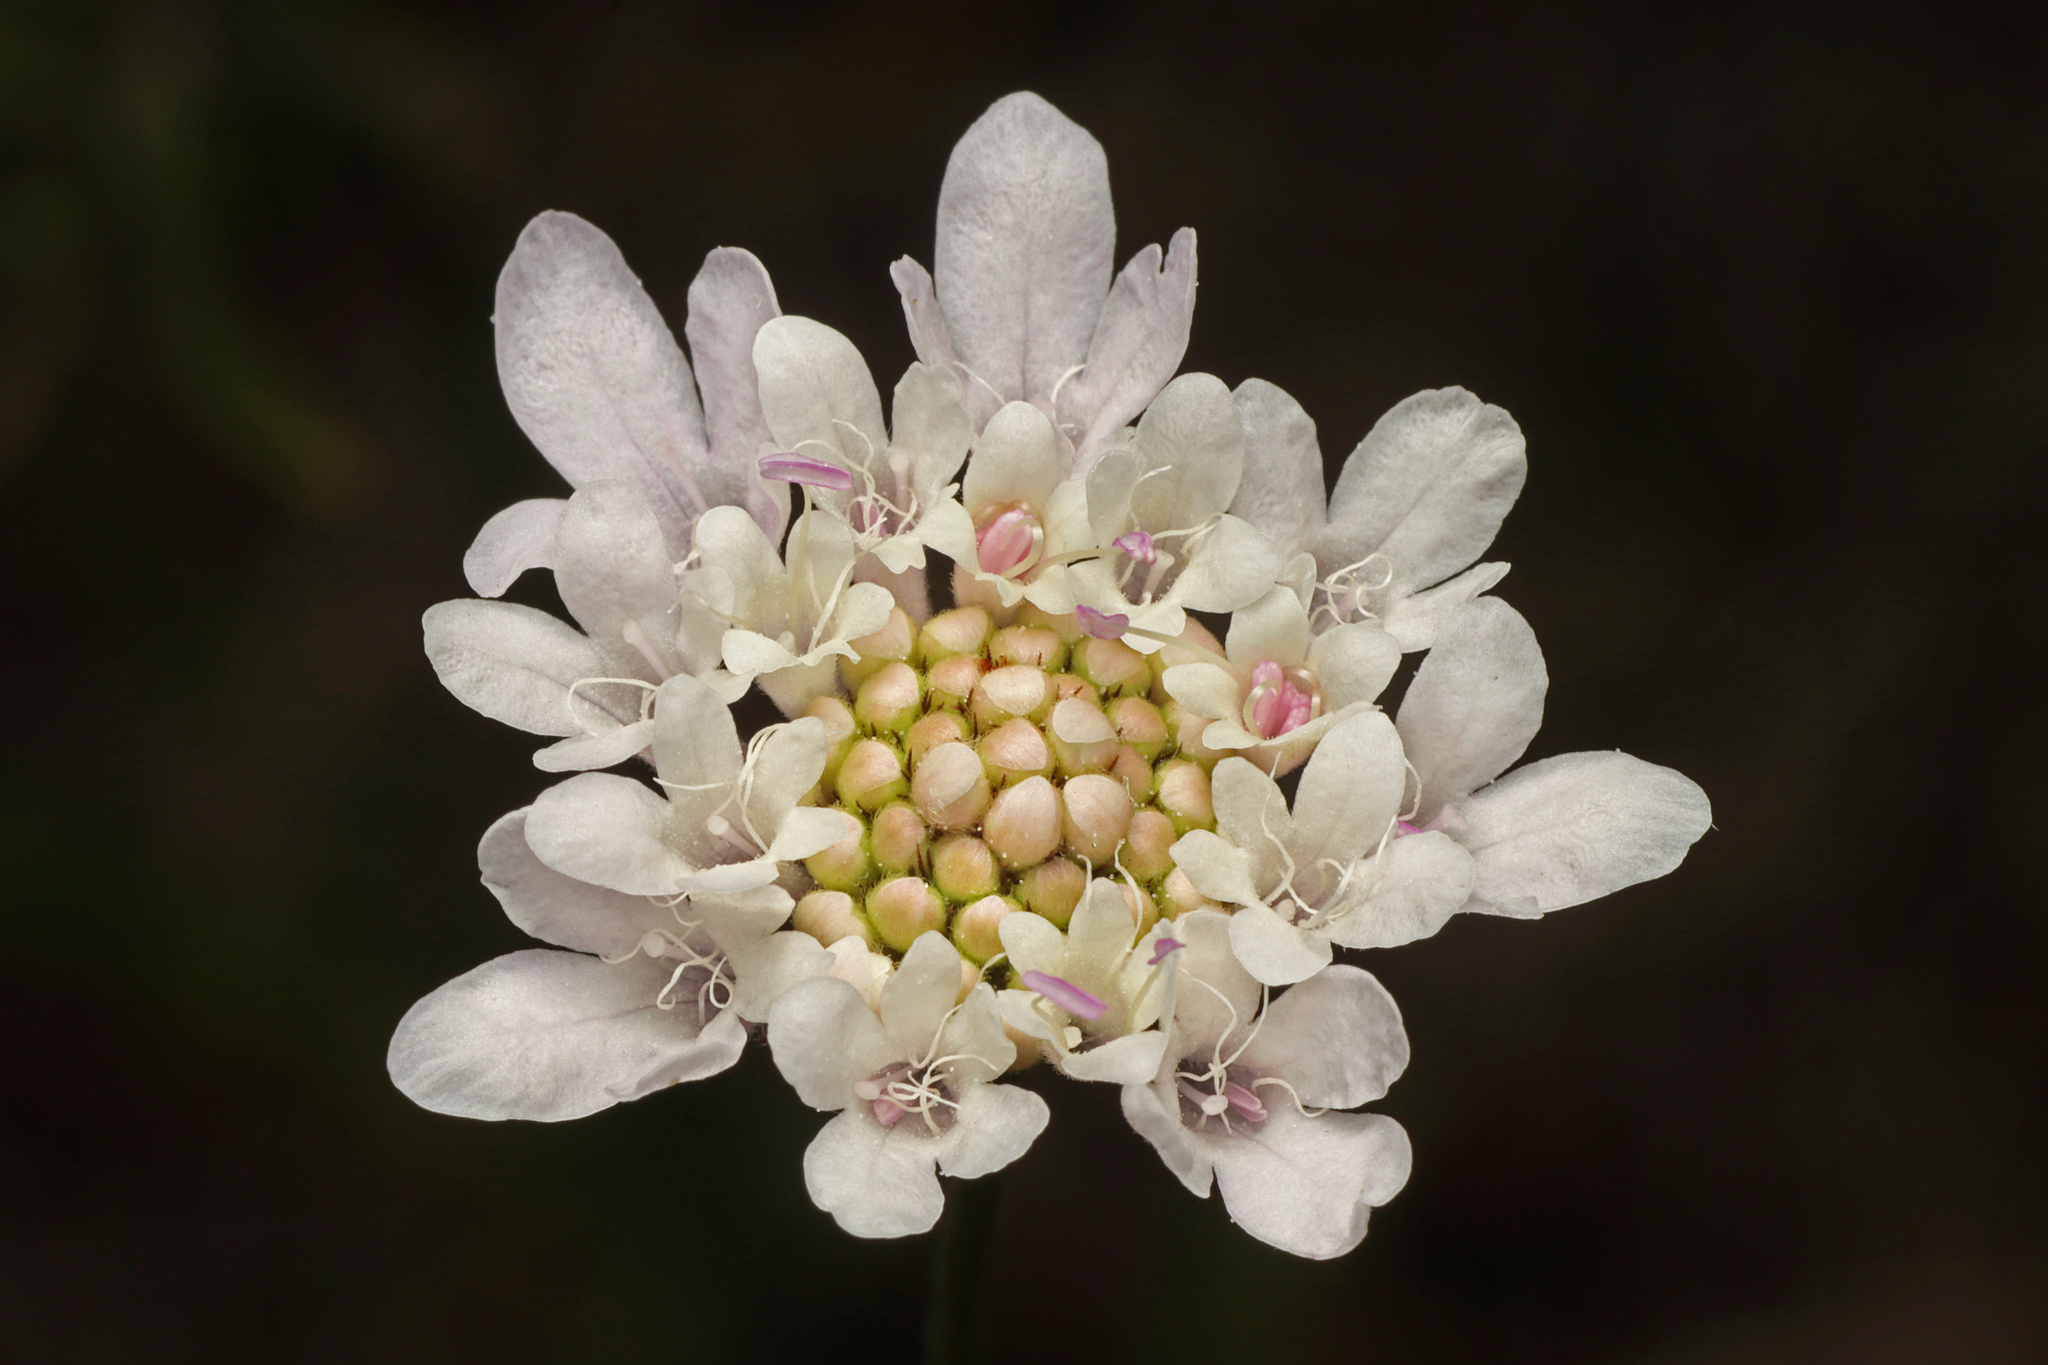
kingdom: Plantae
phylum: Tracheophyta
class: Magnoliopsida
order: Dipsacales
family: Caprifoliaceae
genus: Sixalix
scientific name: Sixalix atropurpurea
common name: Sweet scabious
